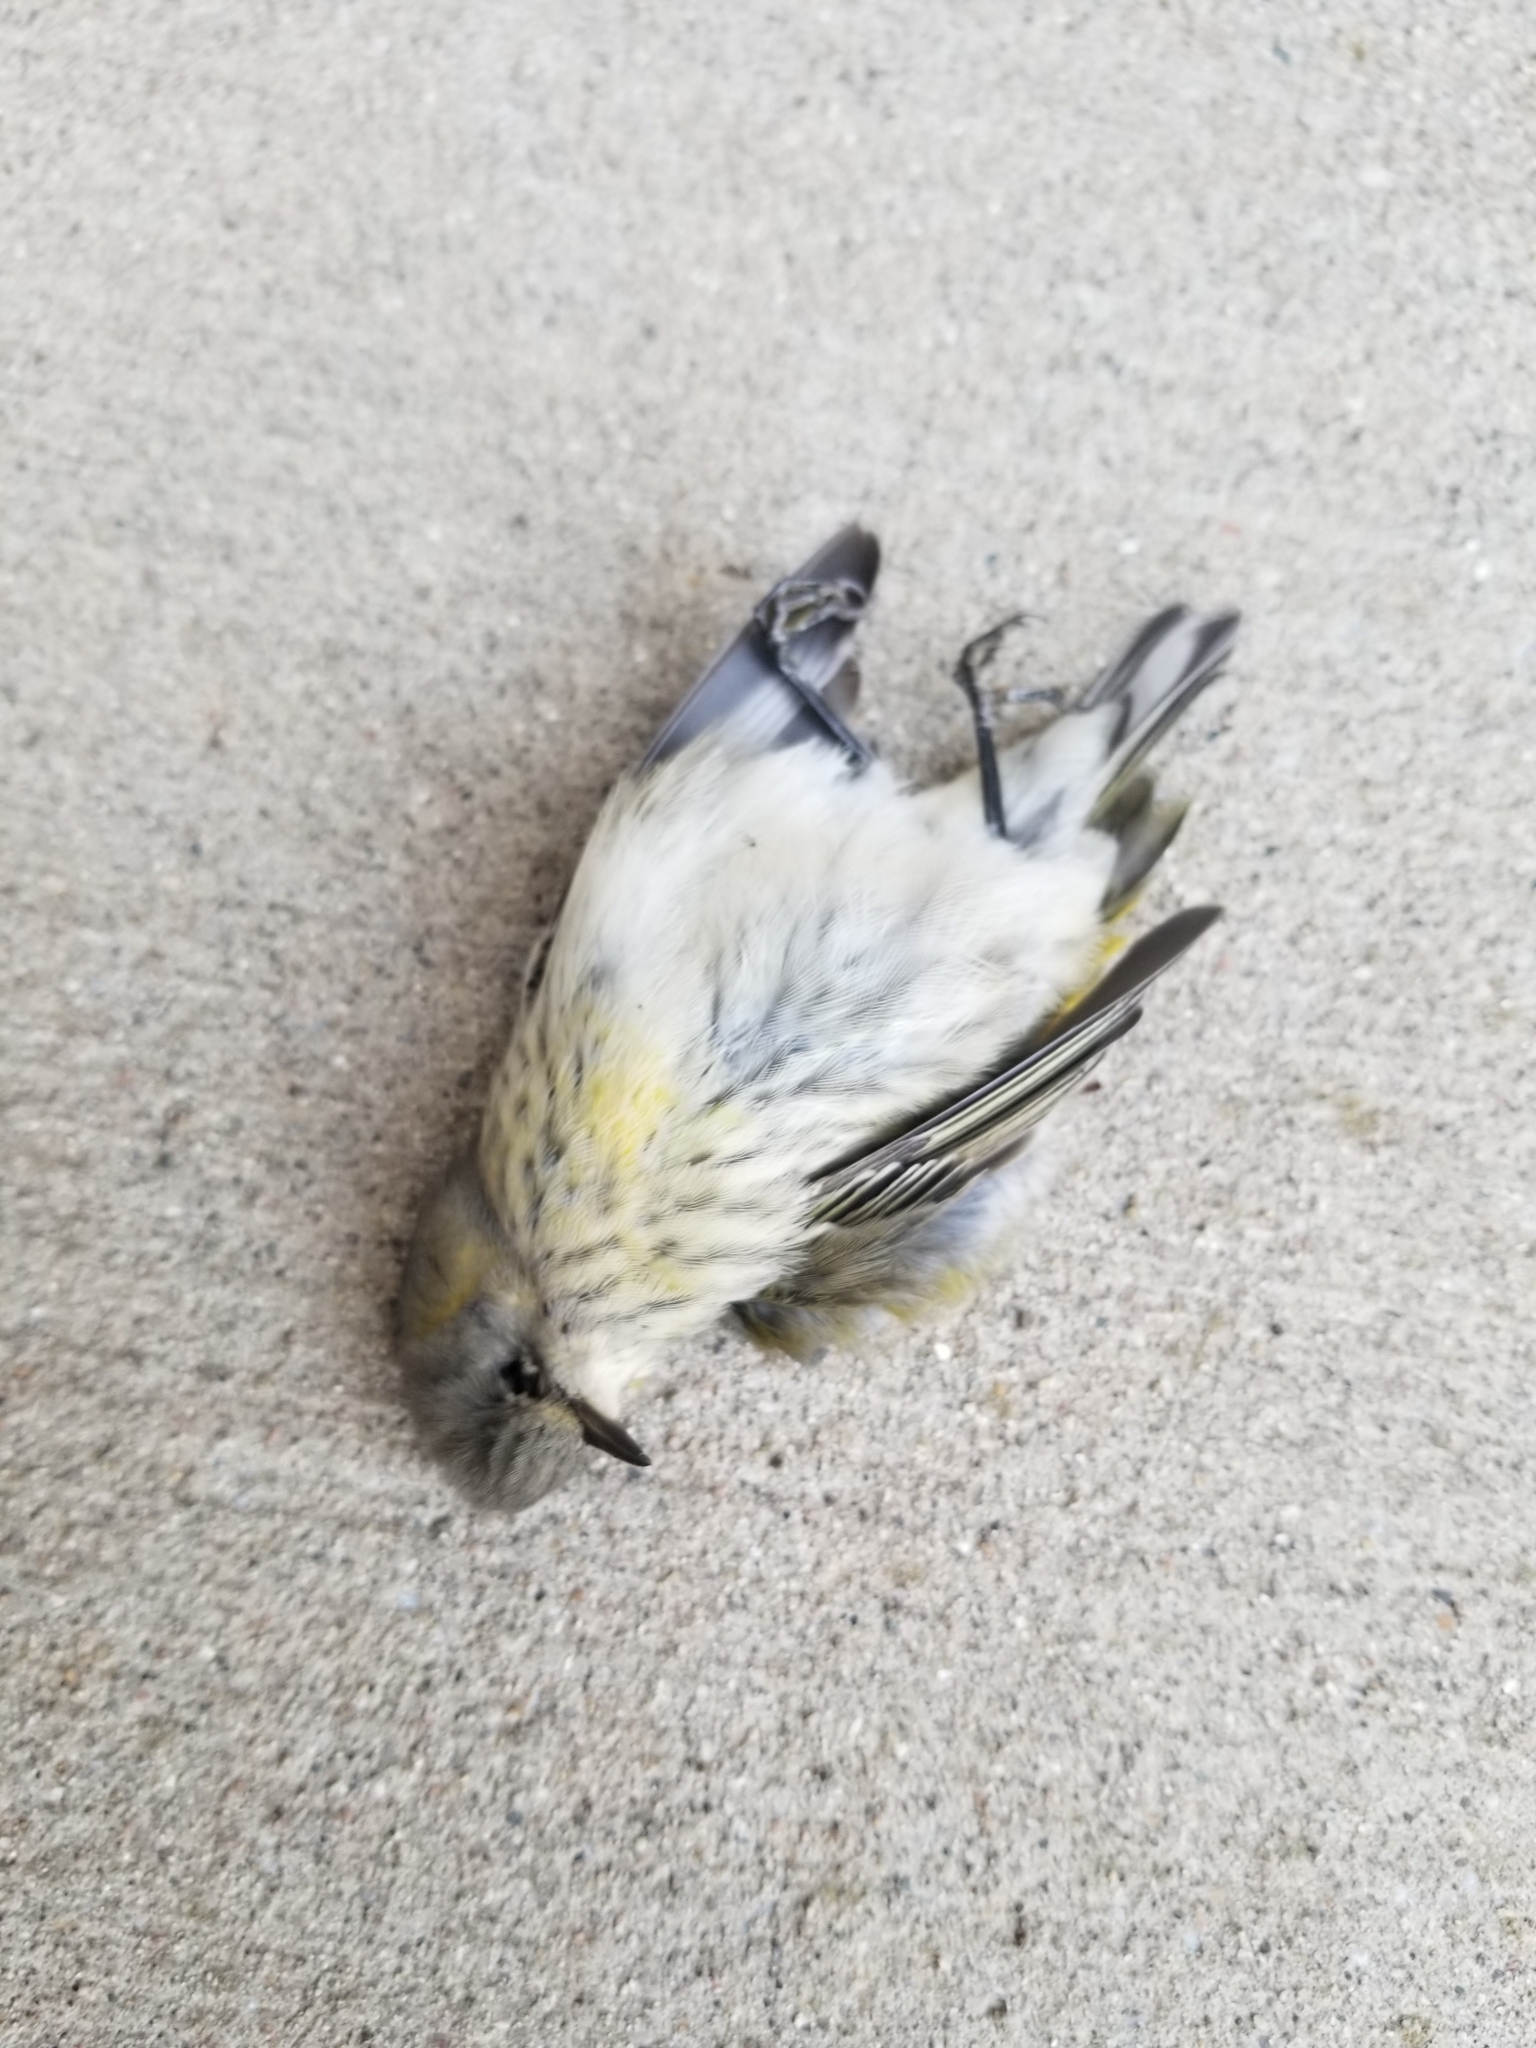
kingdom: Animalia
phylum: Chordata
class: Aves
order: Passeriformes
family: Parulidae
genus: Setophaga
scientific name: Setophaga tigrina
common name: Cape may warbler
